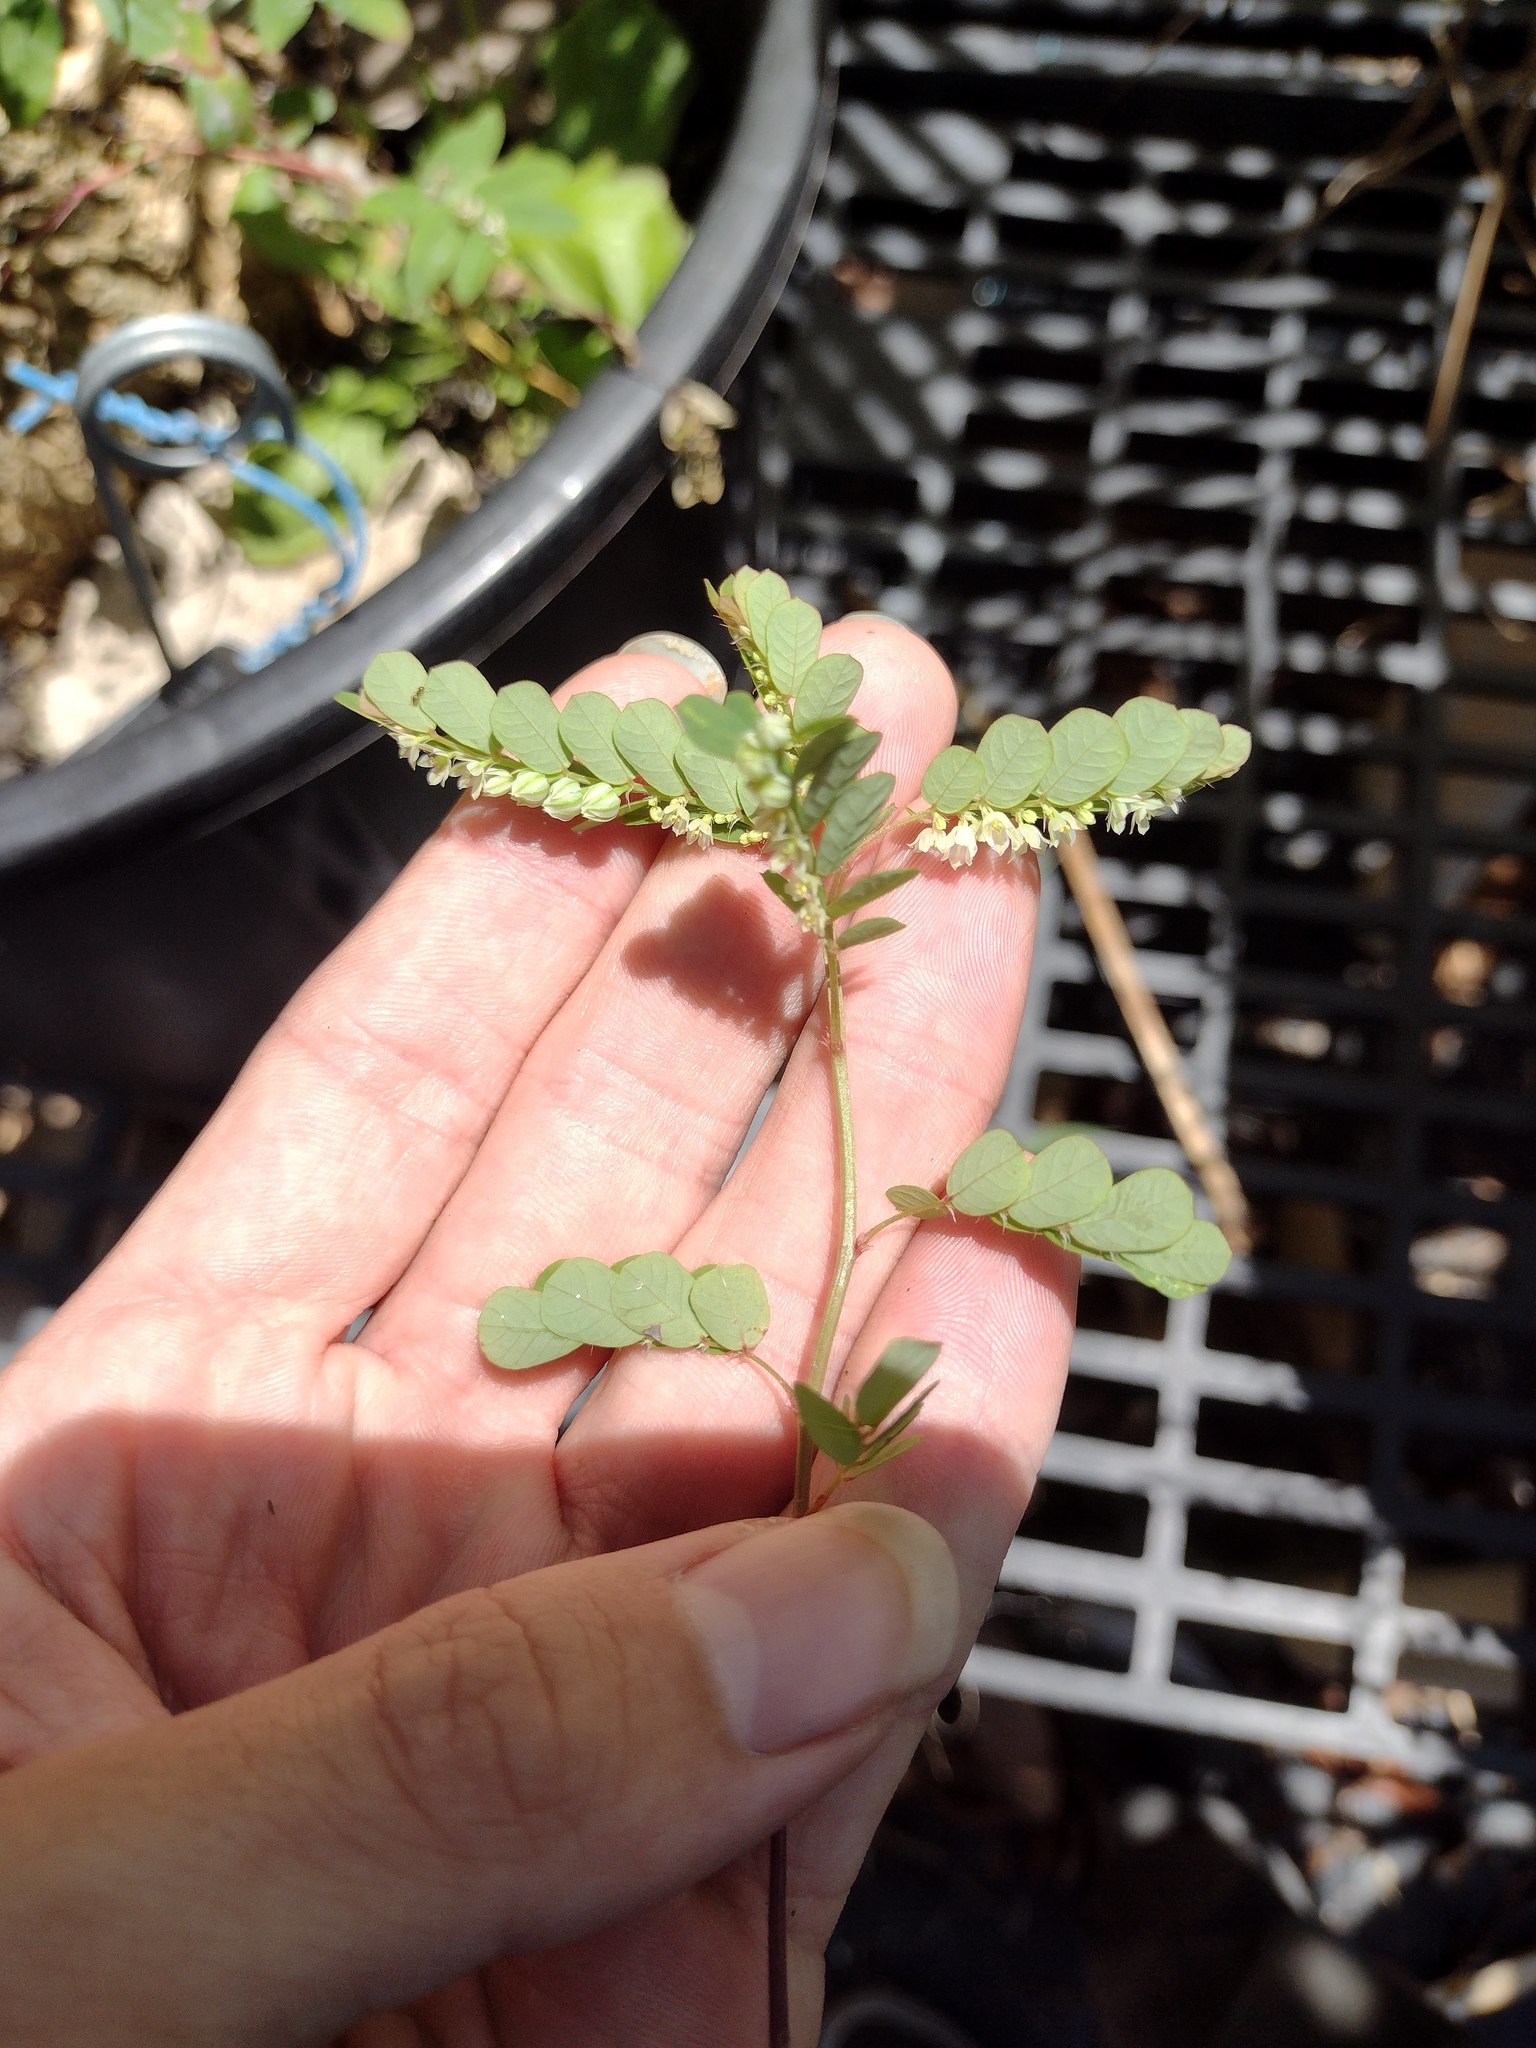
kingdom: Plantae
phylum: Tracheophyta
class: Magnoliopsida
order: Malpighiales
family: Phyllanthaceae
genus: Phyllanthus
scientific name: Phyllanthus leucanthus
